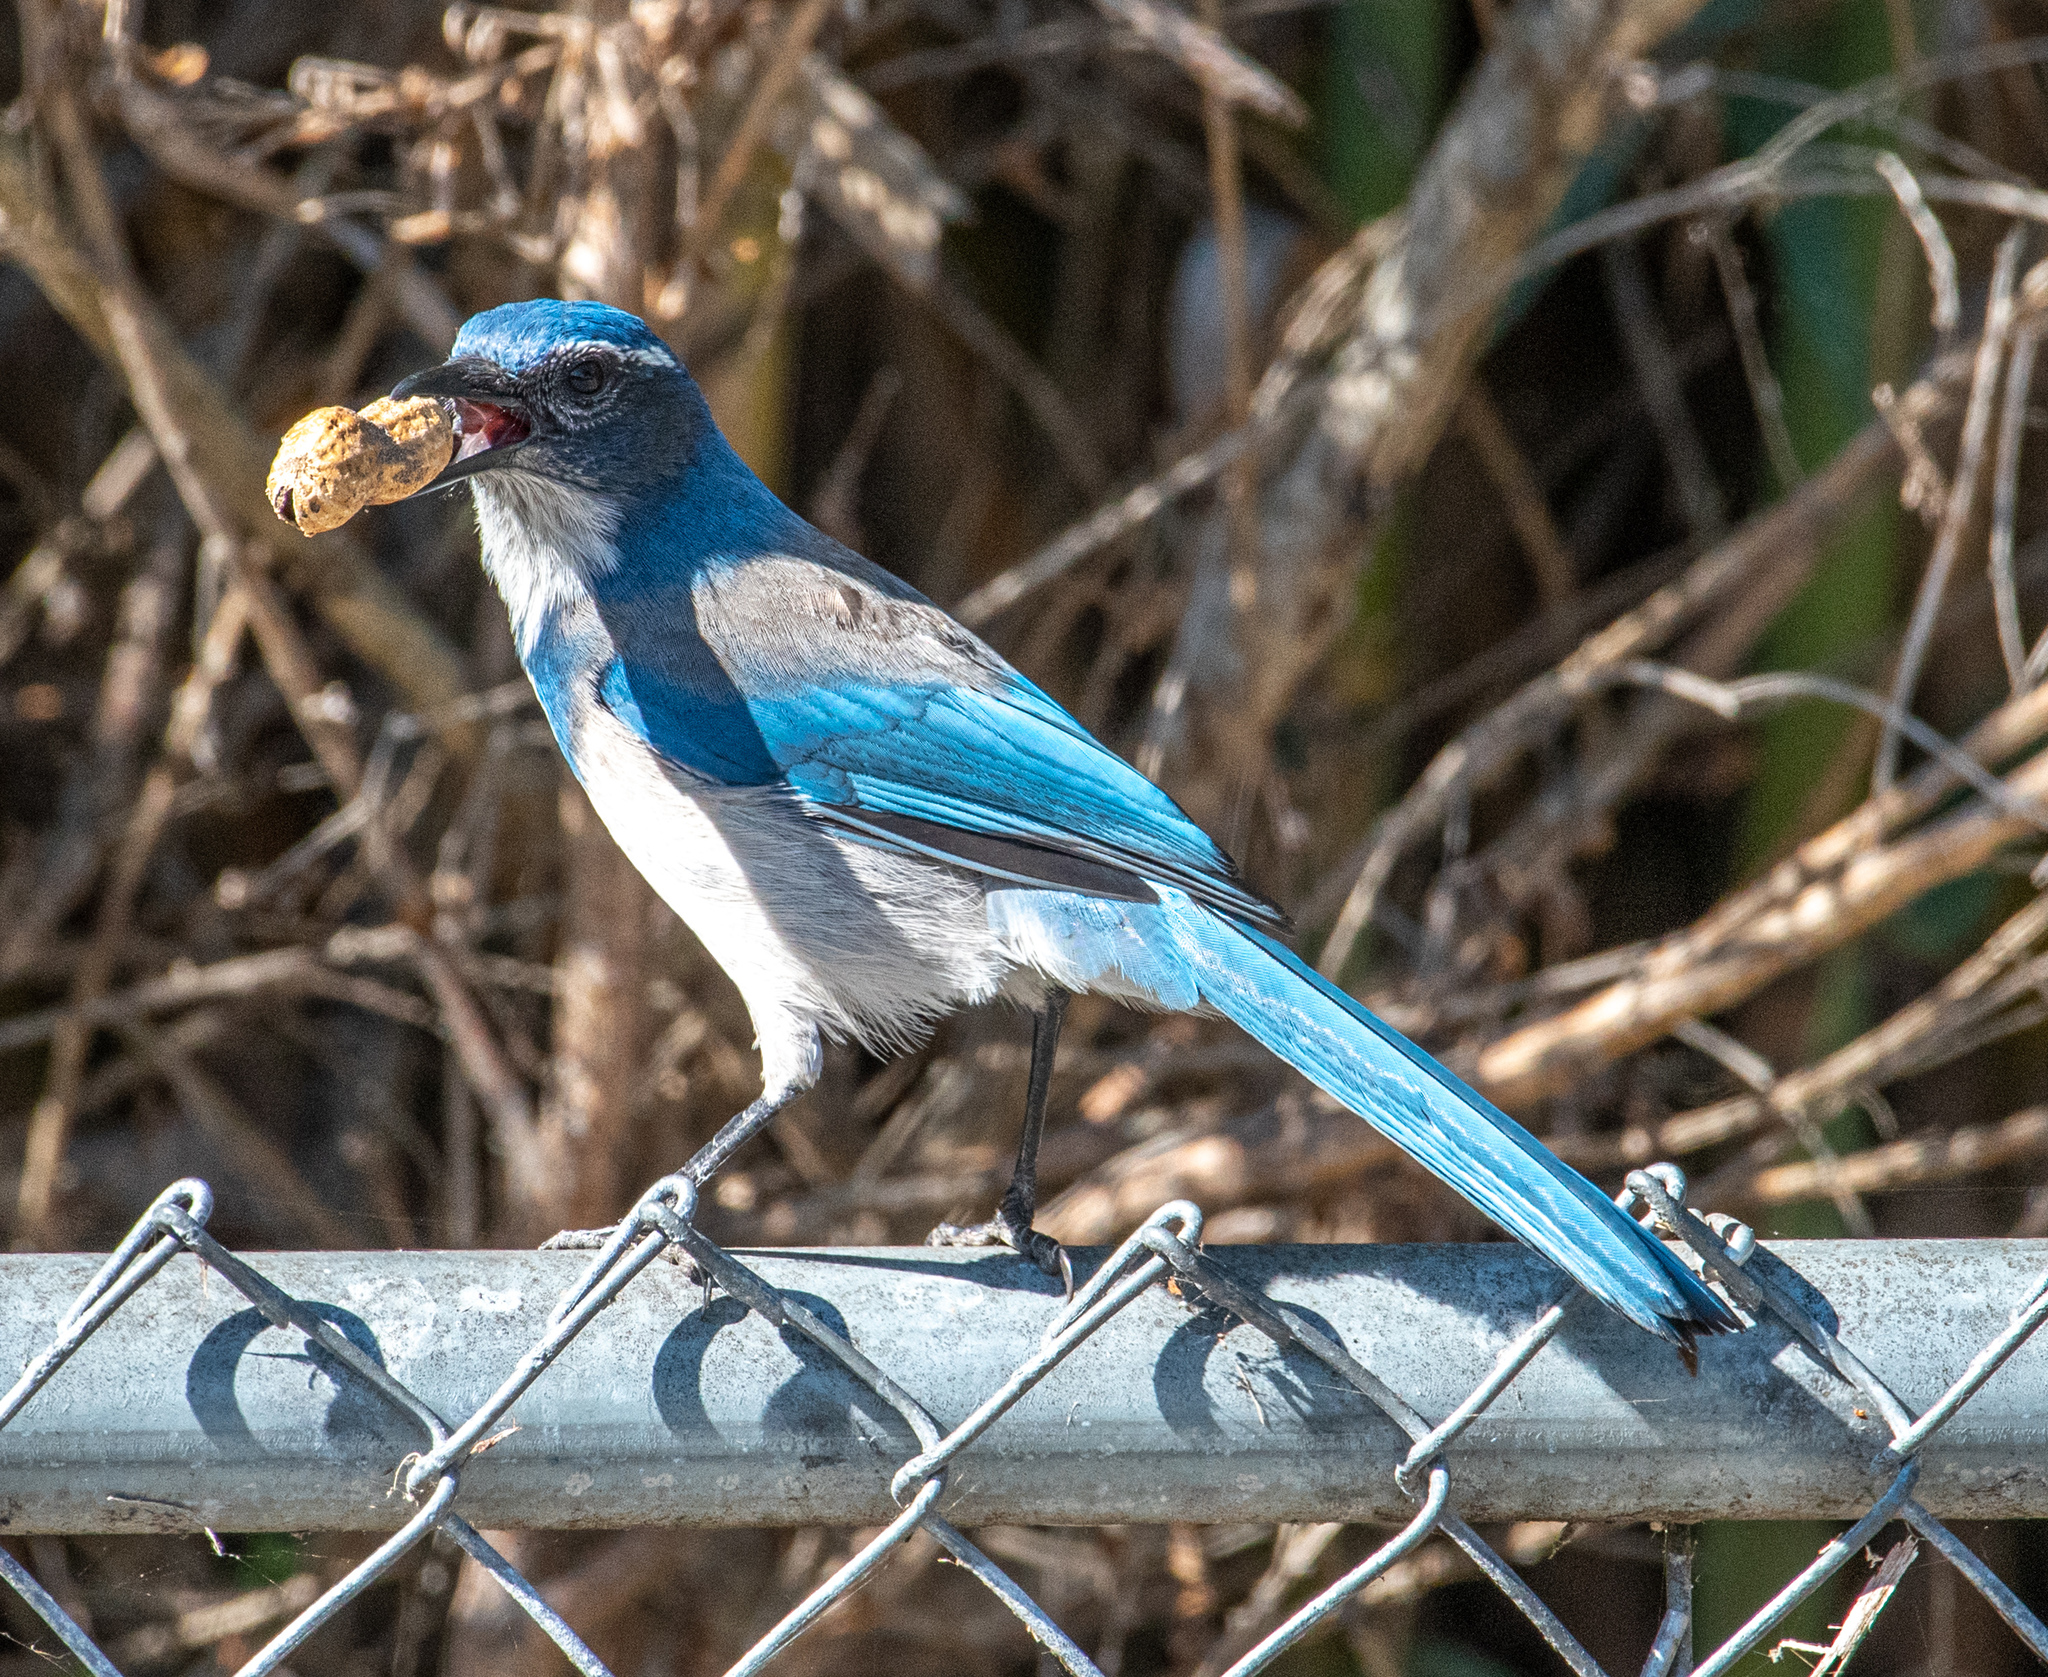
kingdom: Animalia
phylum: Chordata
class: Aves
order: Passeriformes
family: Corvidae
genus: Aphelocoma
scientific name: Aphelocoma californica
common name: California scrub-jay
